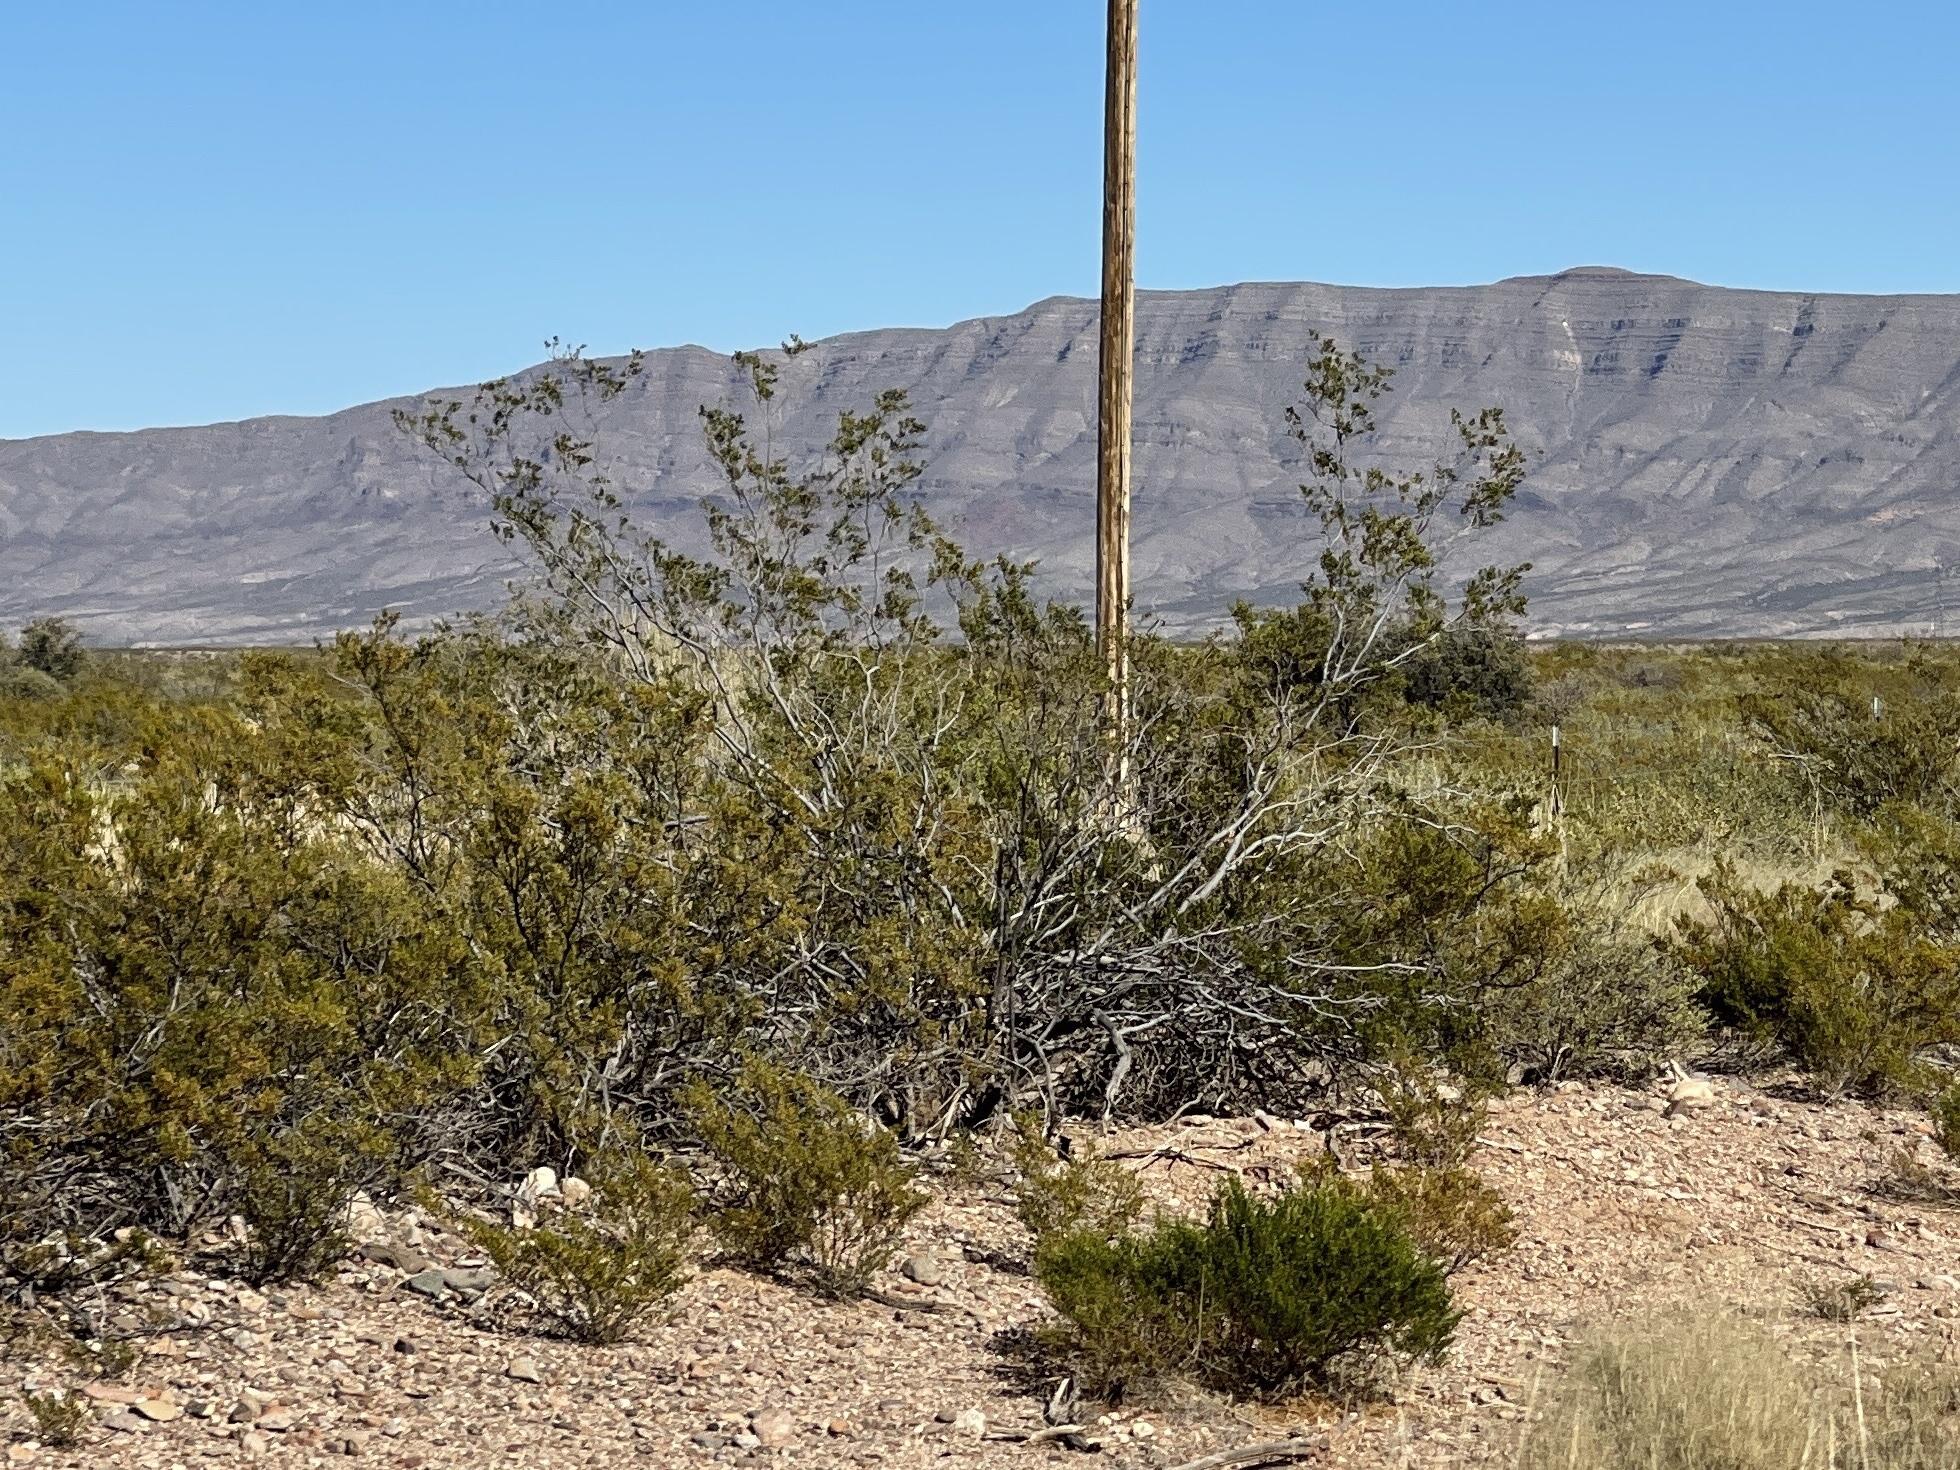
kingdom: Plantae
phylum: Tracheophyta
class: Magnoliopsida
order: Zygophyllales
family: Zygophyllaceae
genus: Larrea
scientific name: Larrea tridentata
